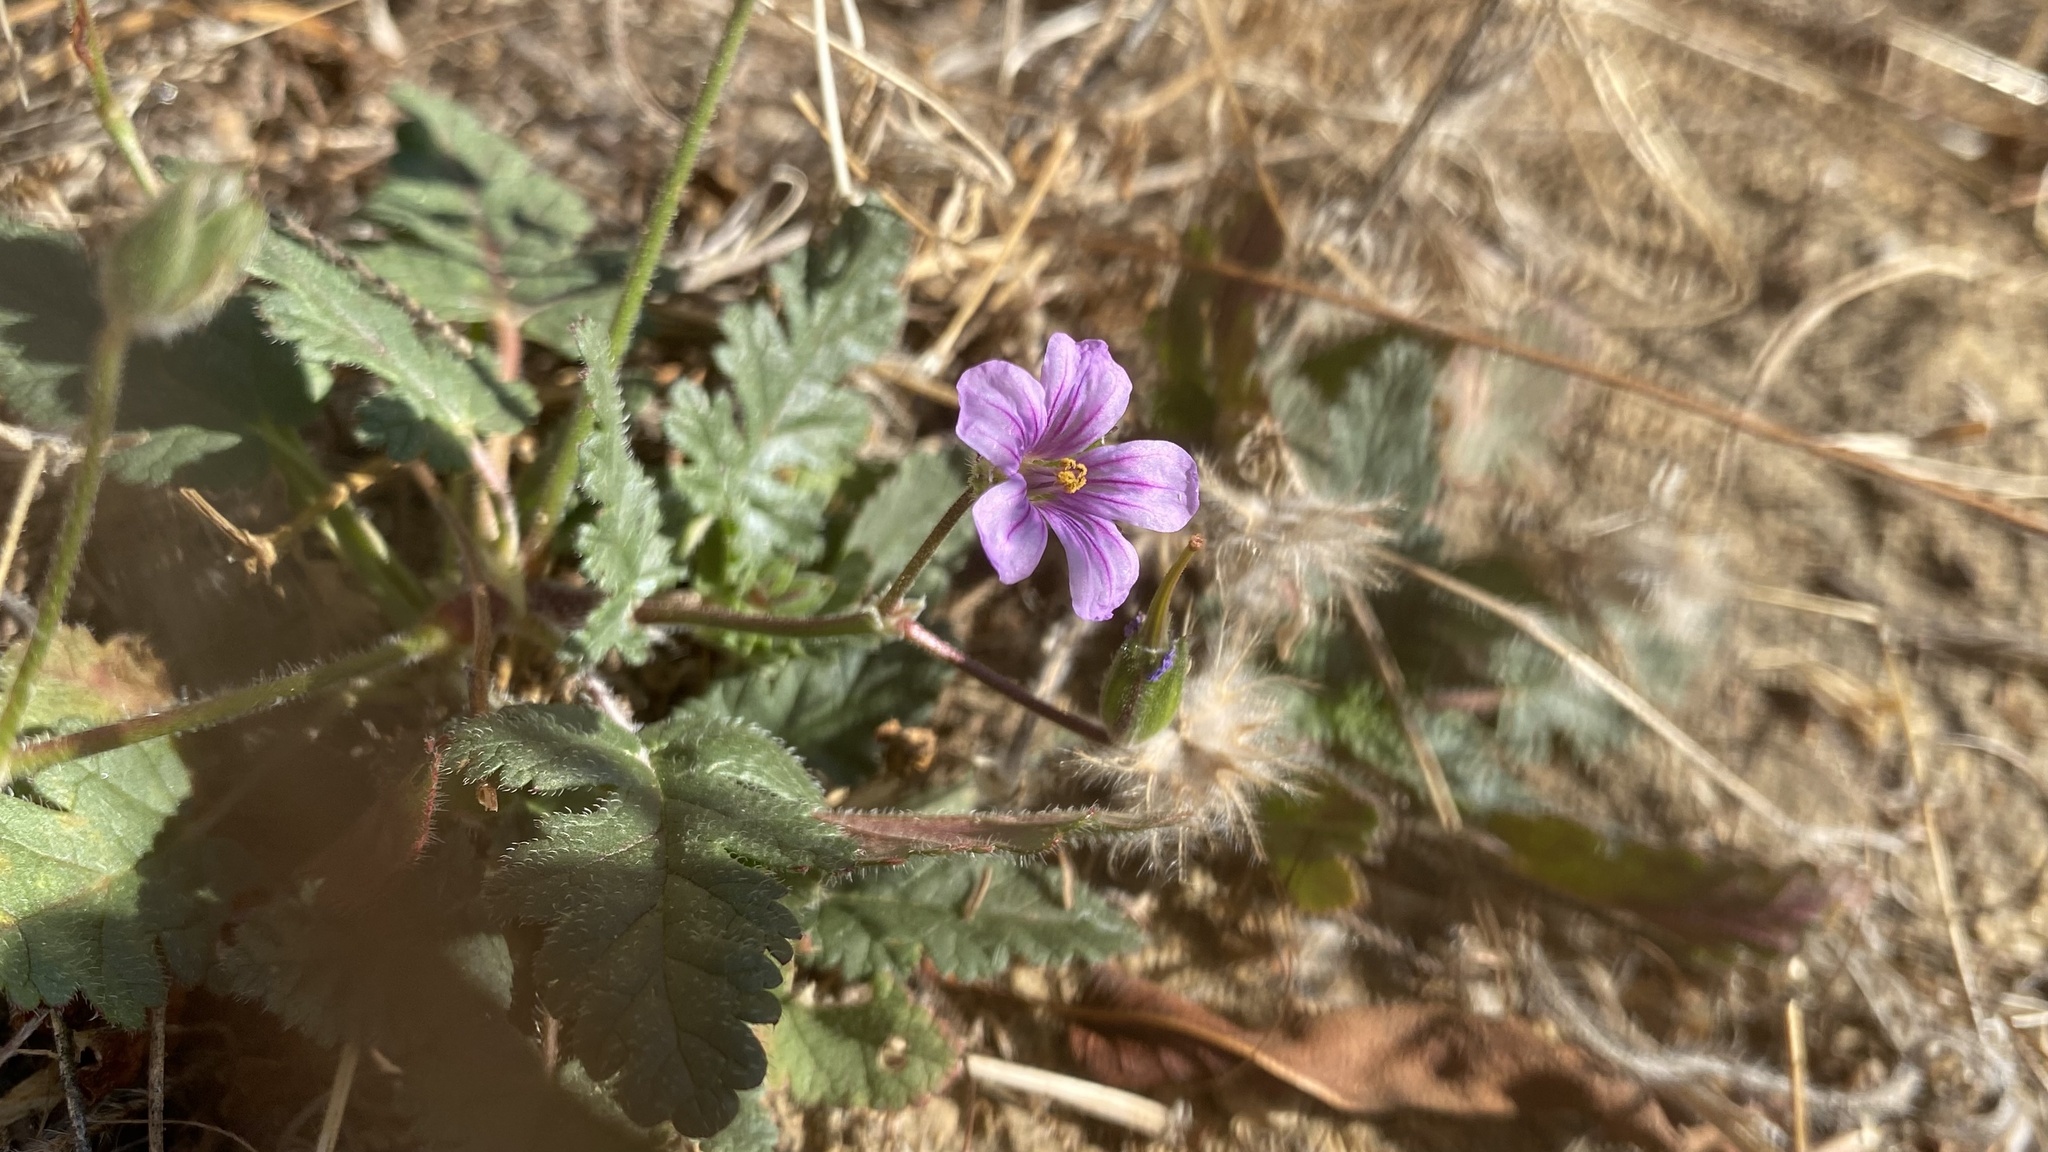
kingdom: Plantae
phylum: Tracheophyta
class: Magnoliopsida
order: Geraniales
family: Geraniaceae
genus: Erodium
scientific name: Erodium botrys
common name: Mediterranean stork's-bill
